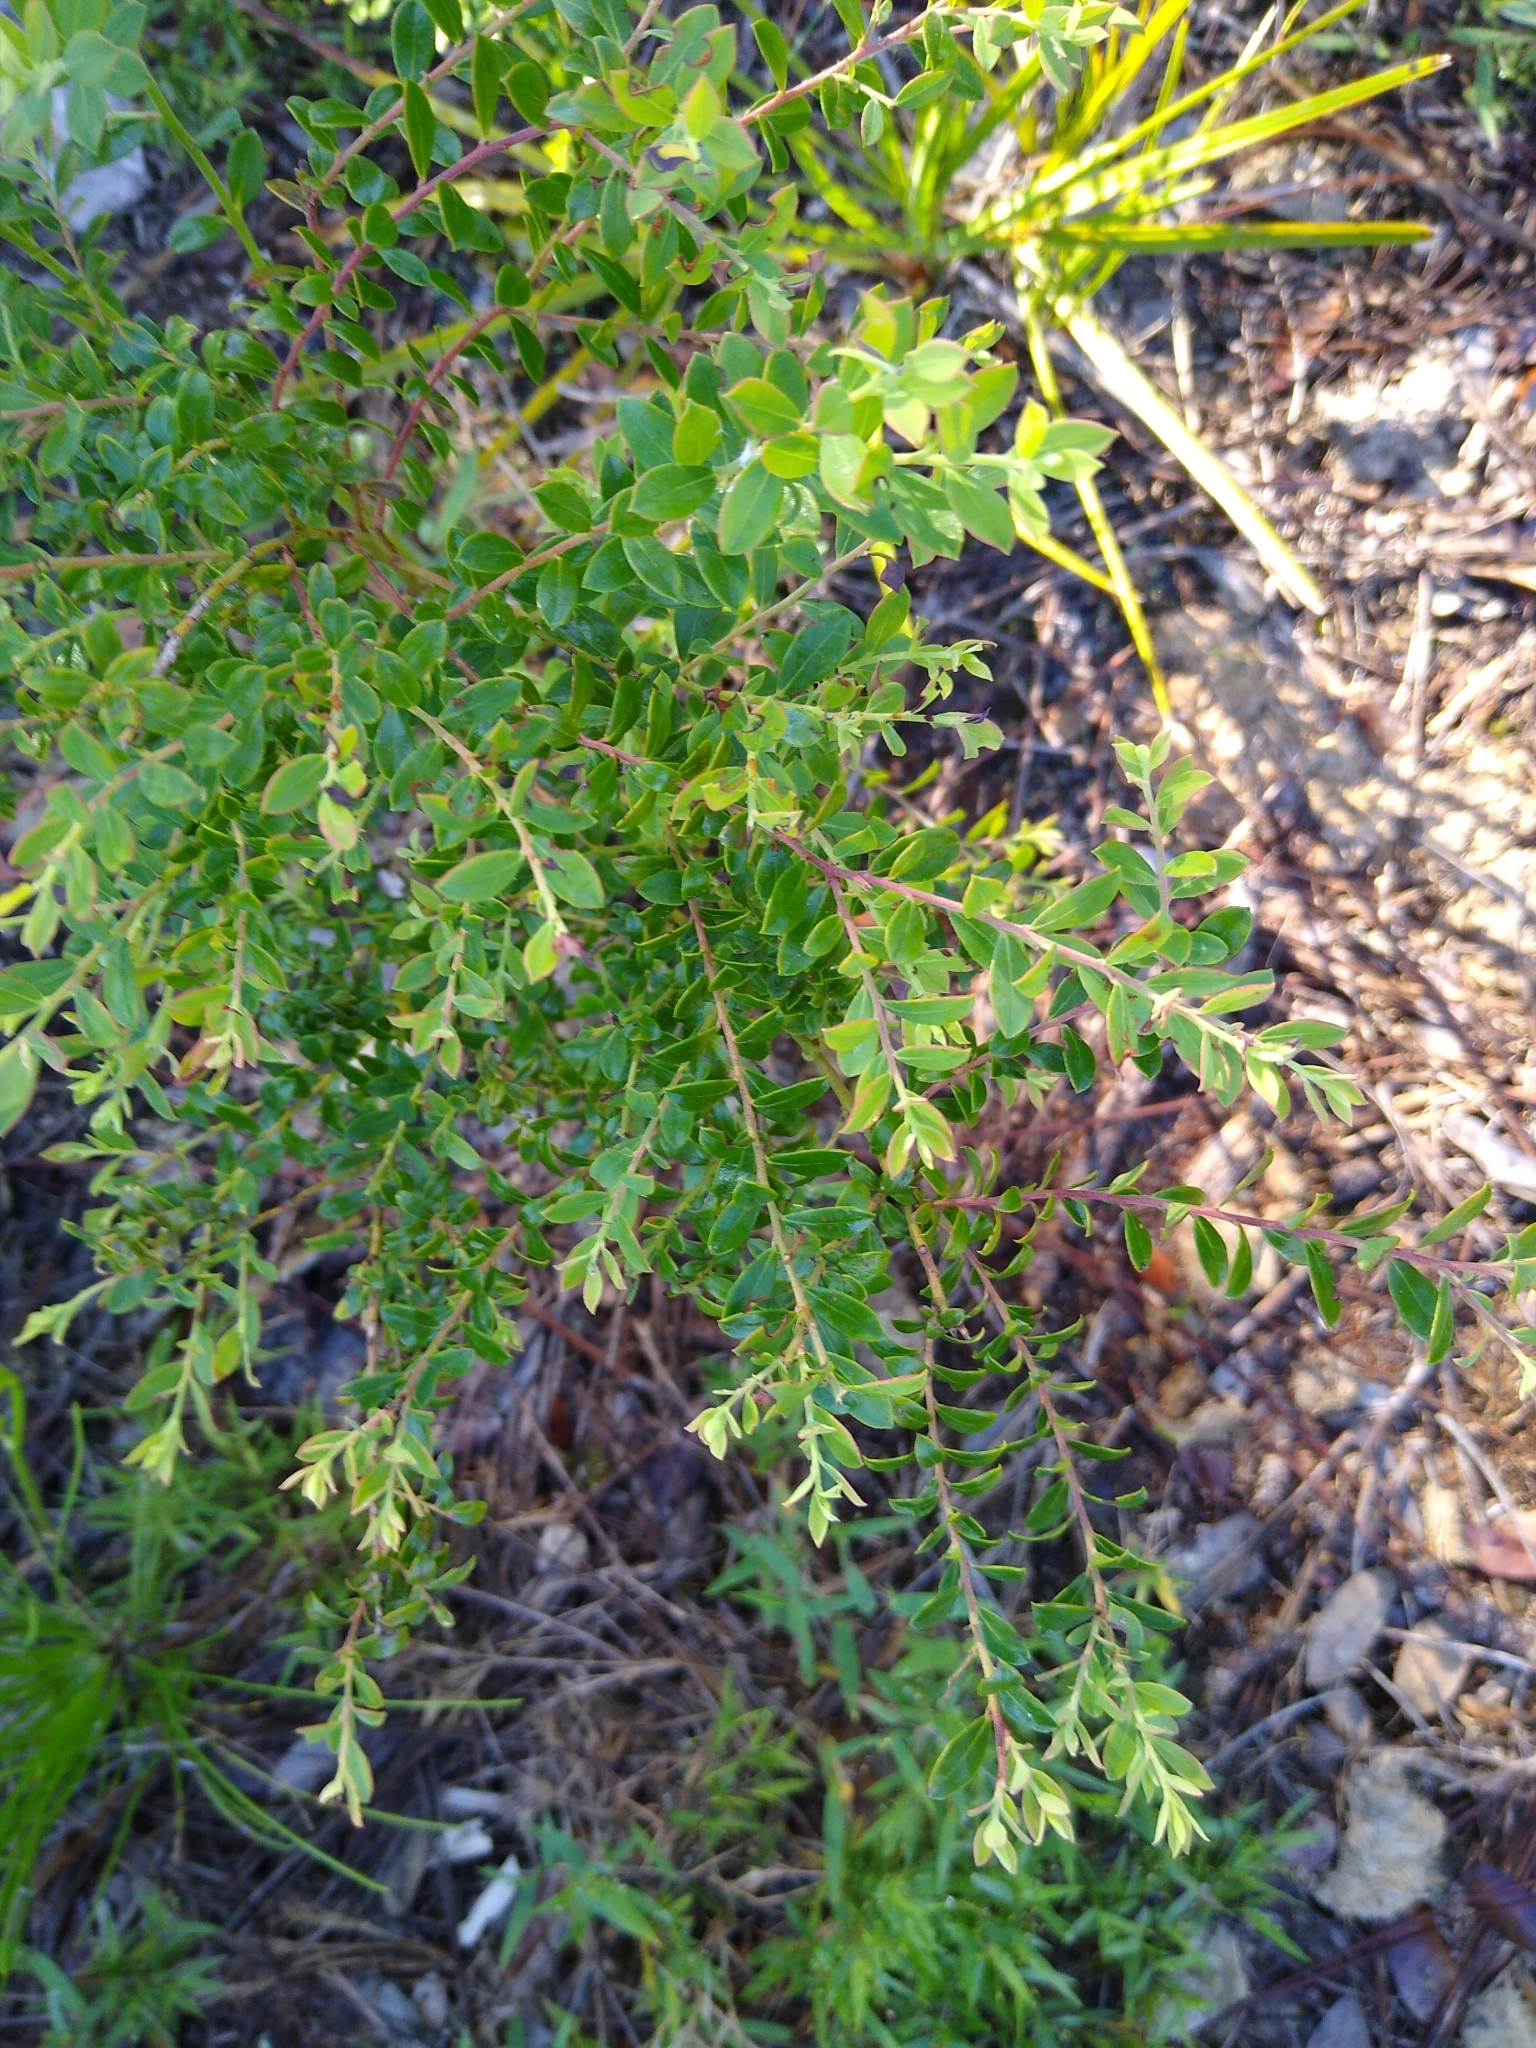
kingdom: Plantae
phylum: Tracheophyta
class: Magnoliopsida
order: Ericales
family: Ericaceae
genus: Vaccinium
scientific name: Vaccinium myrsinites
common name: Evergreen blueberry
